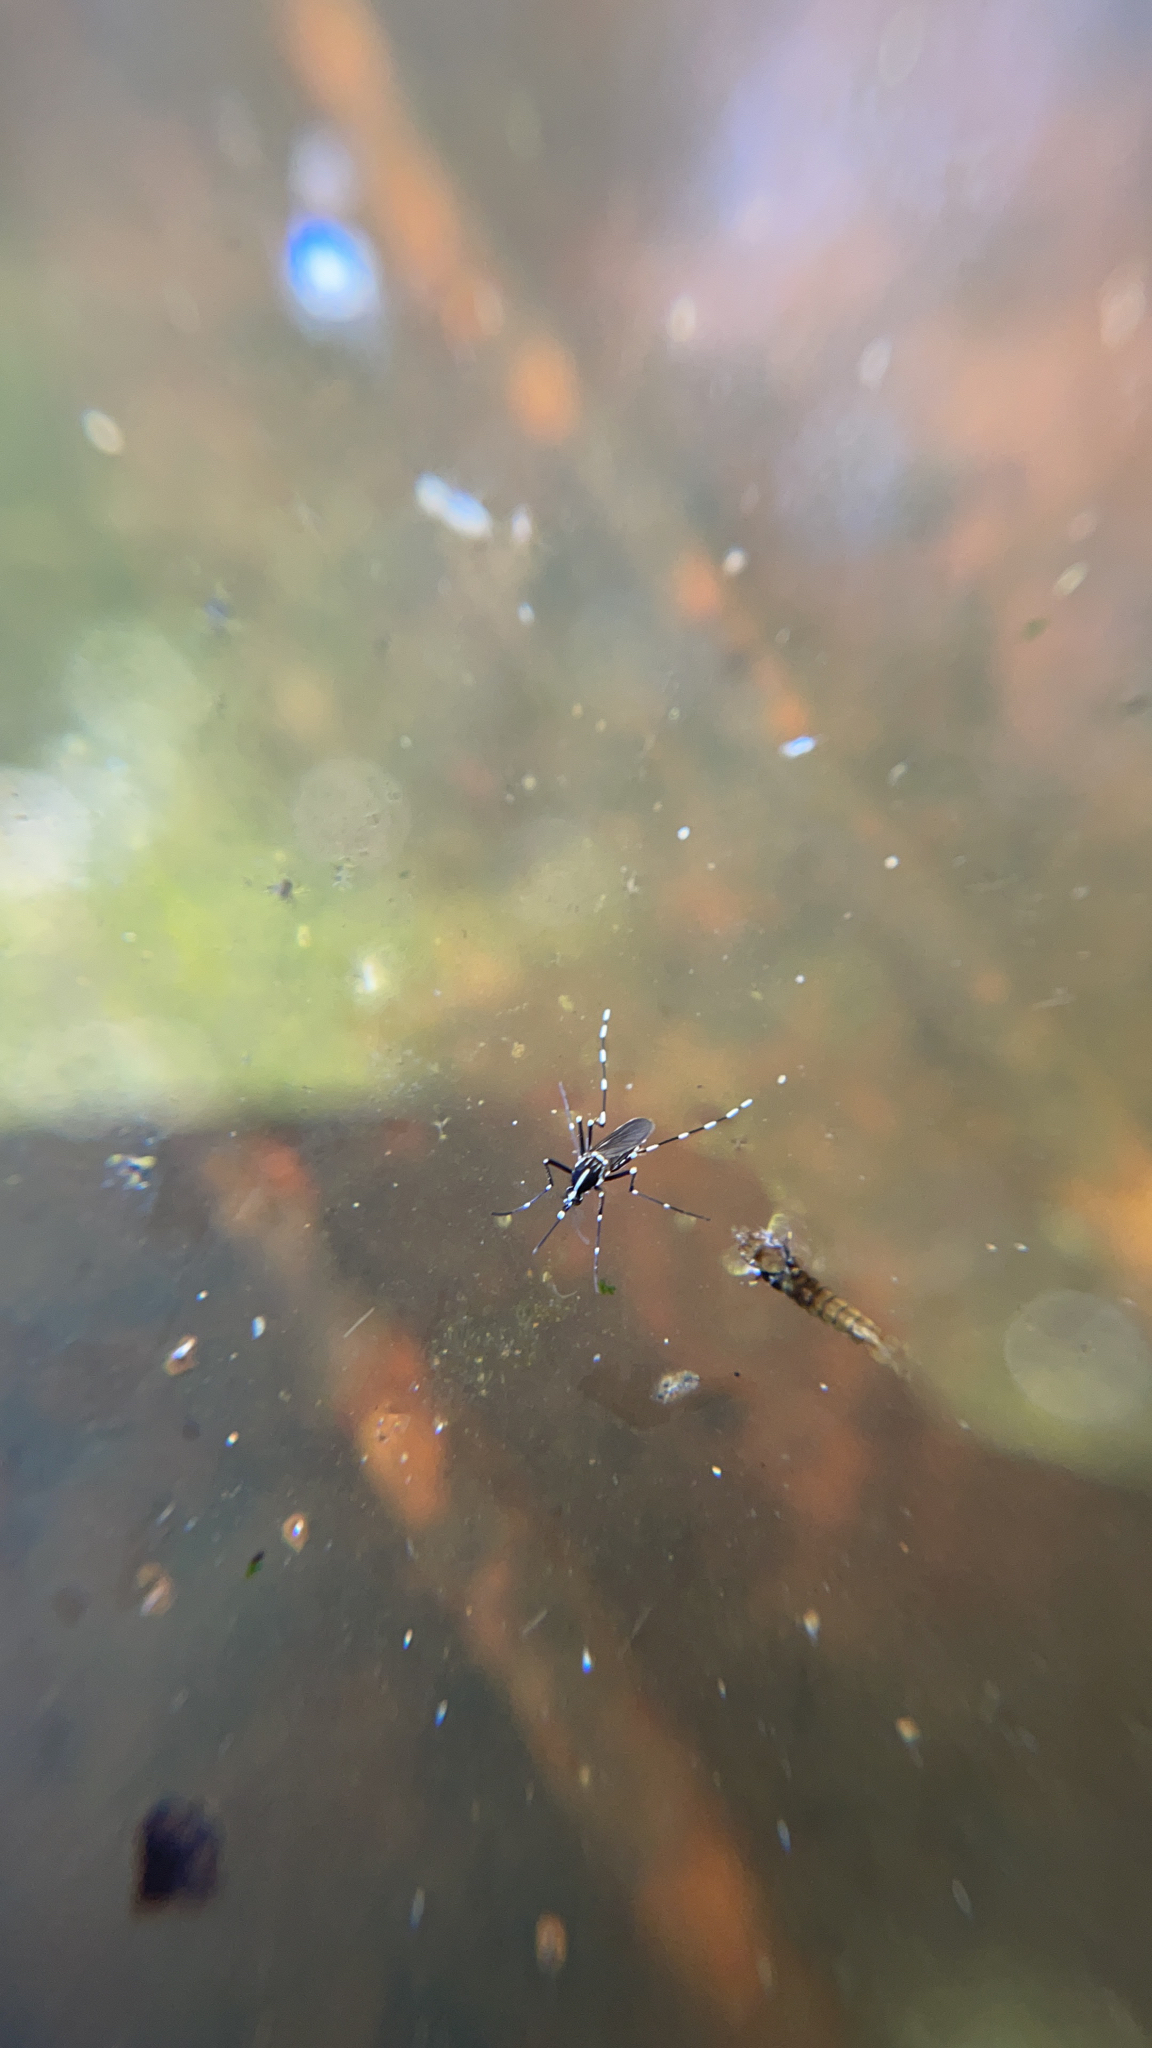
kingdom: Animalia
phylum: Arthropoda
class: Insecta
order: Diptera
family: Culicidae
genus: Aedes
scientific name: Aedes albopictus
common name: Tiger mosquito
